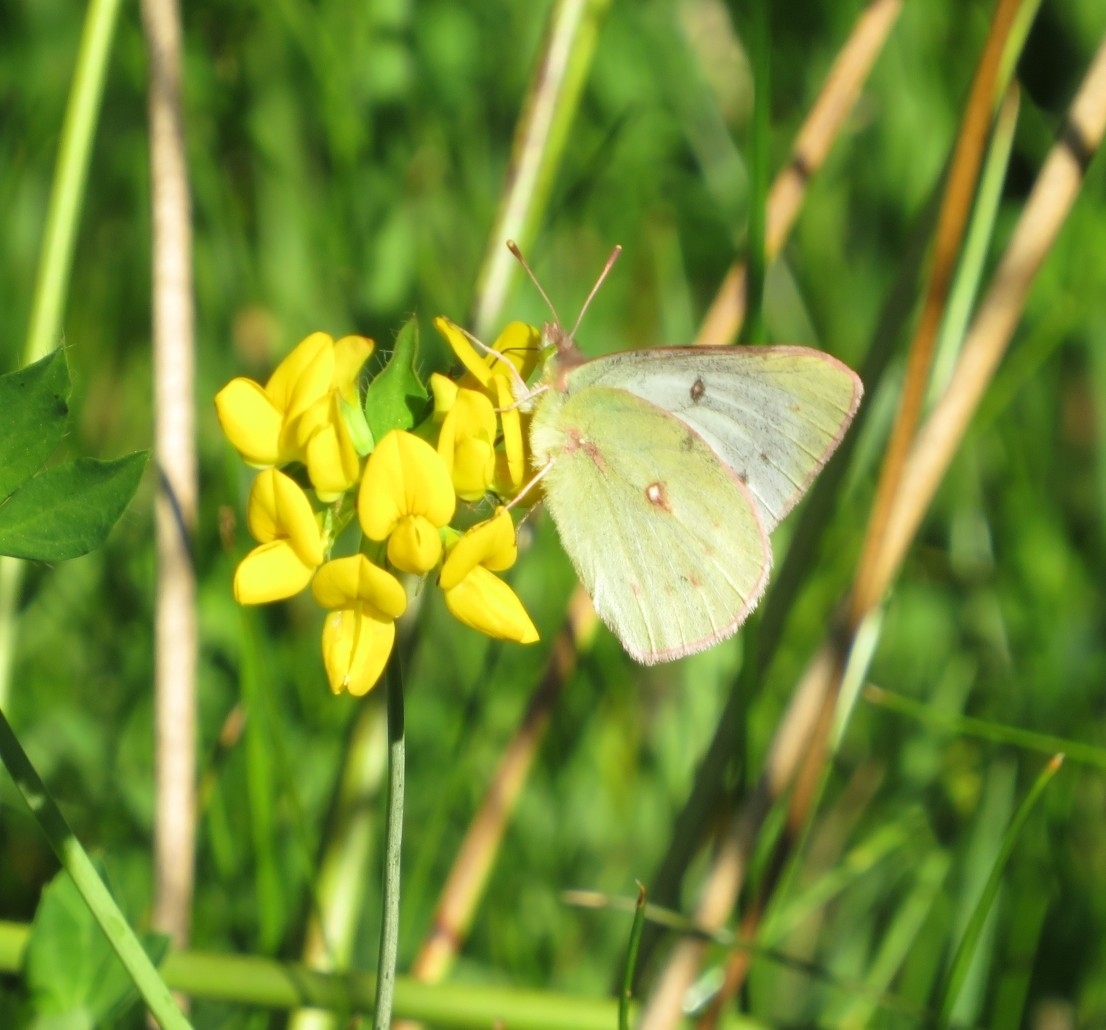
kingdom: Animalia
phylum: Arthropoda
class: Insecta
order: Lepidoptera
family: Pieridae
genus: Colias
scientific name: Colias vauthierii
